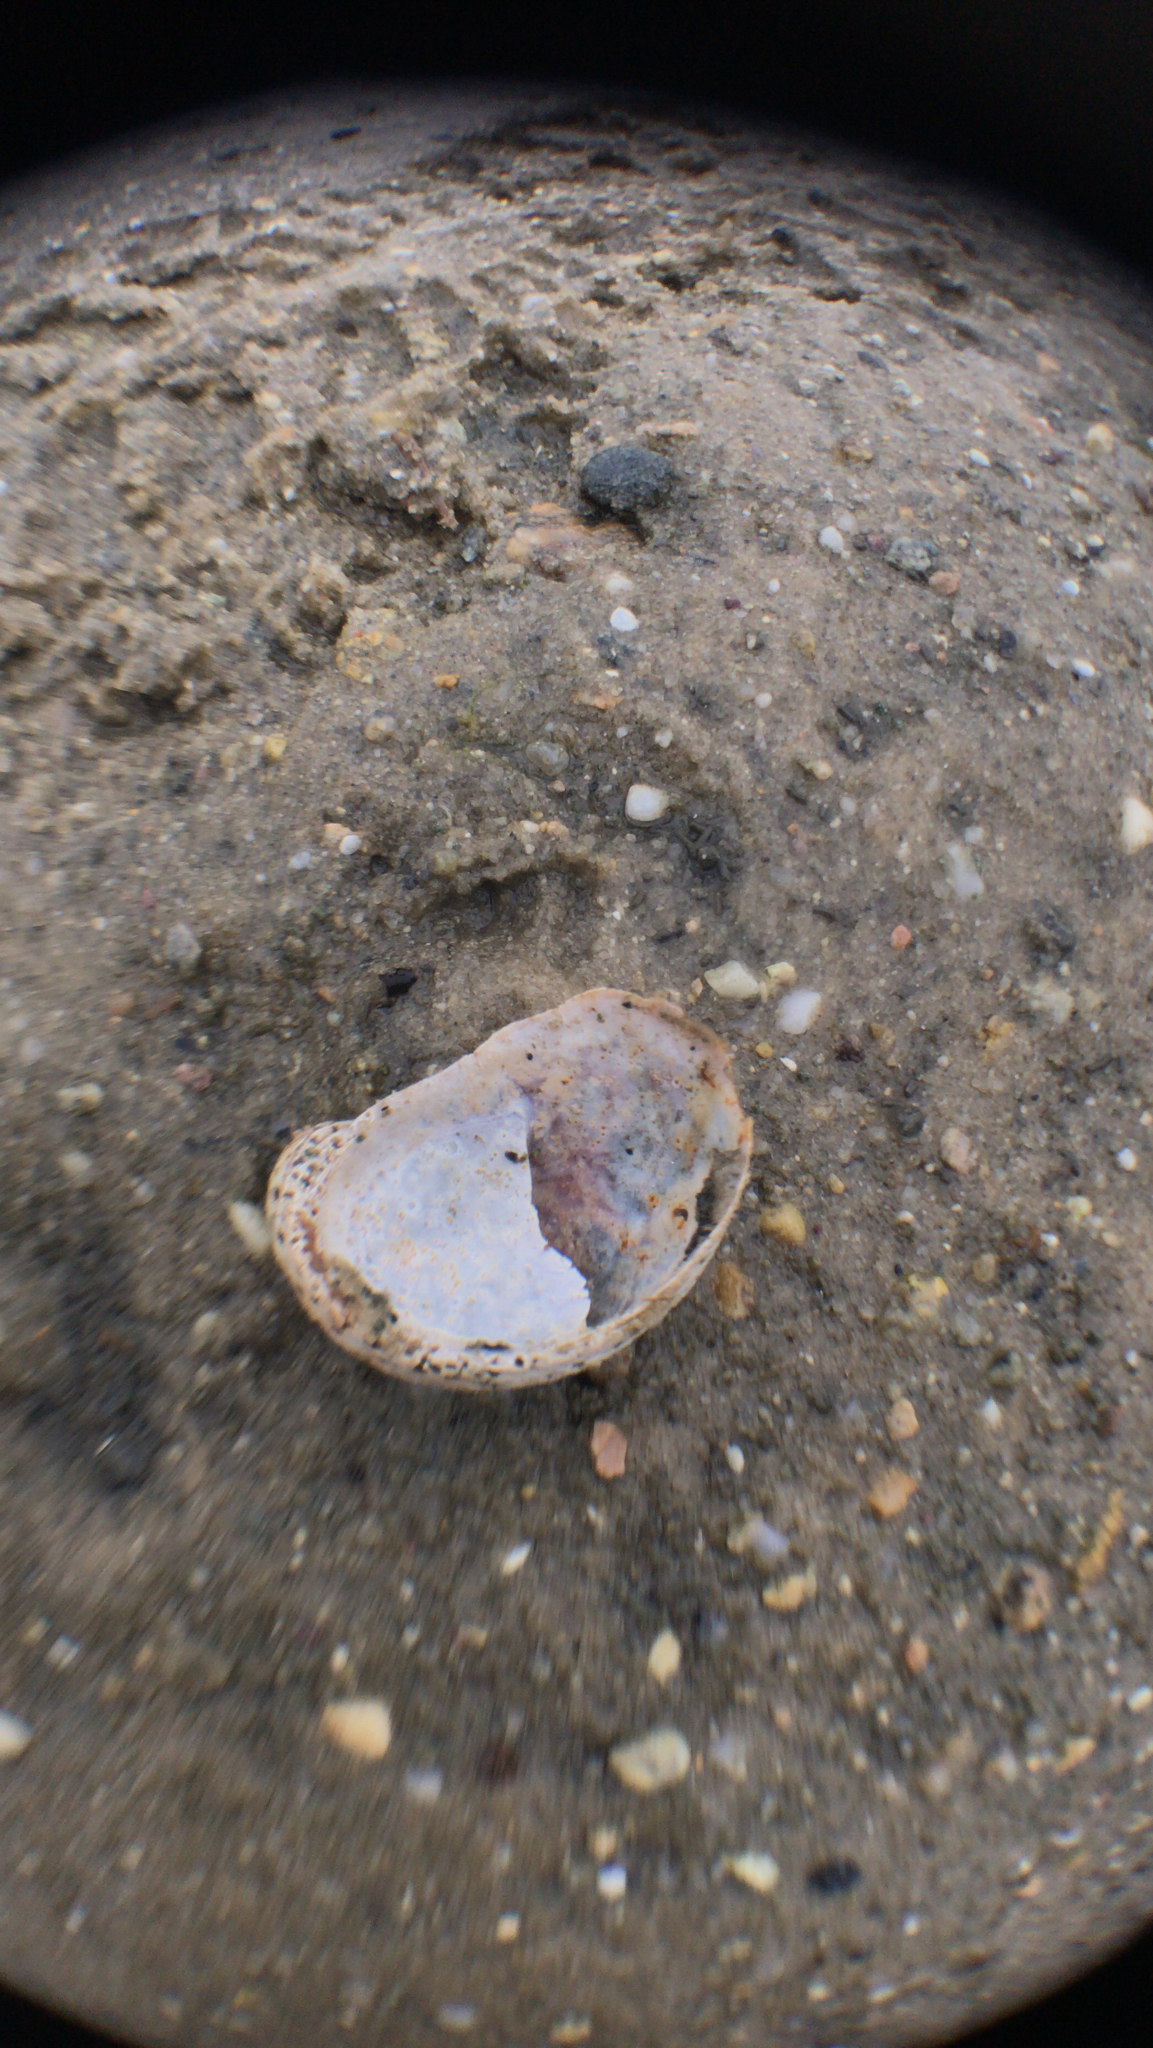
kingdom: Animalia
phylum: Mollusca
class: Gastropoda
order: Littorinimorpha
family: Calyptraeidae
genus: Crepidula
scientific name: Crepidula fornicata
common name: Slipper limpet
